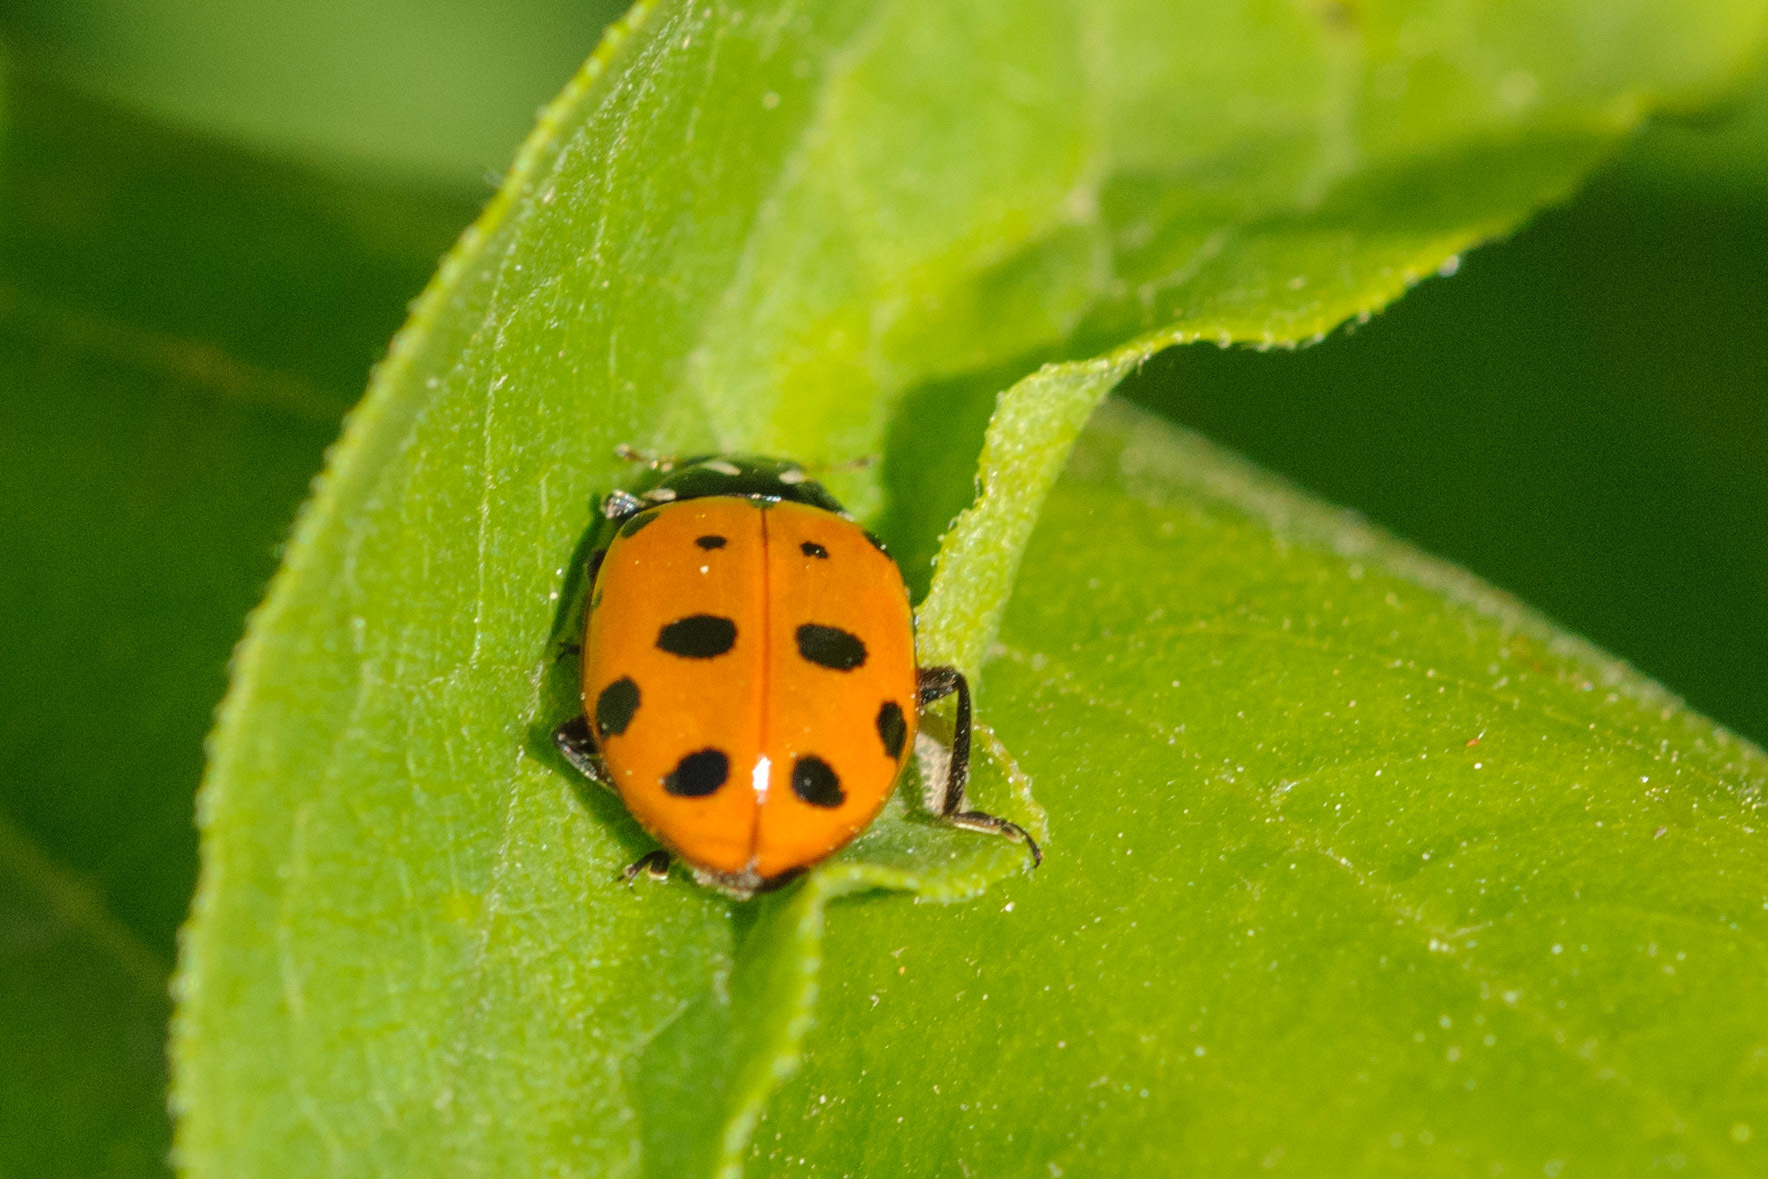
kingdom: Animalia
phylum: Arthropoda
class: Insecta
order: Coleoptera
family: Coccinellidae
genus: Hippodamia
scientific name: Hippodamia convergens
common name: Convergent lady beetle
